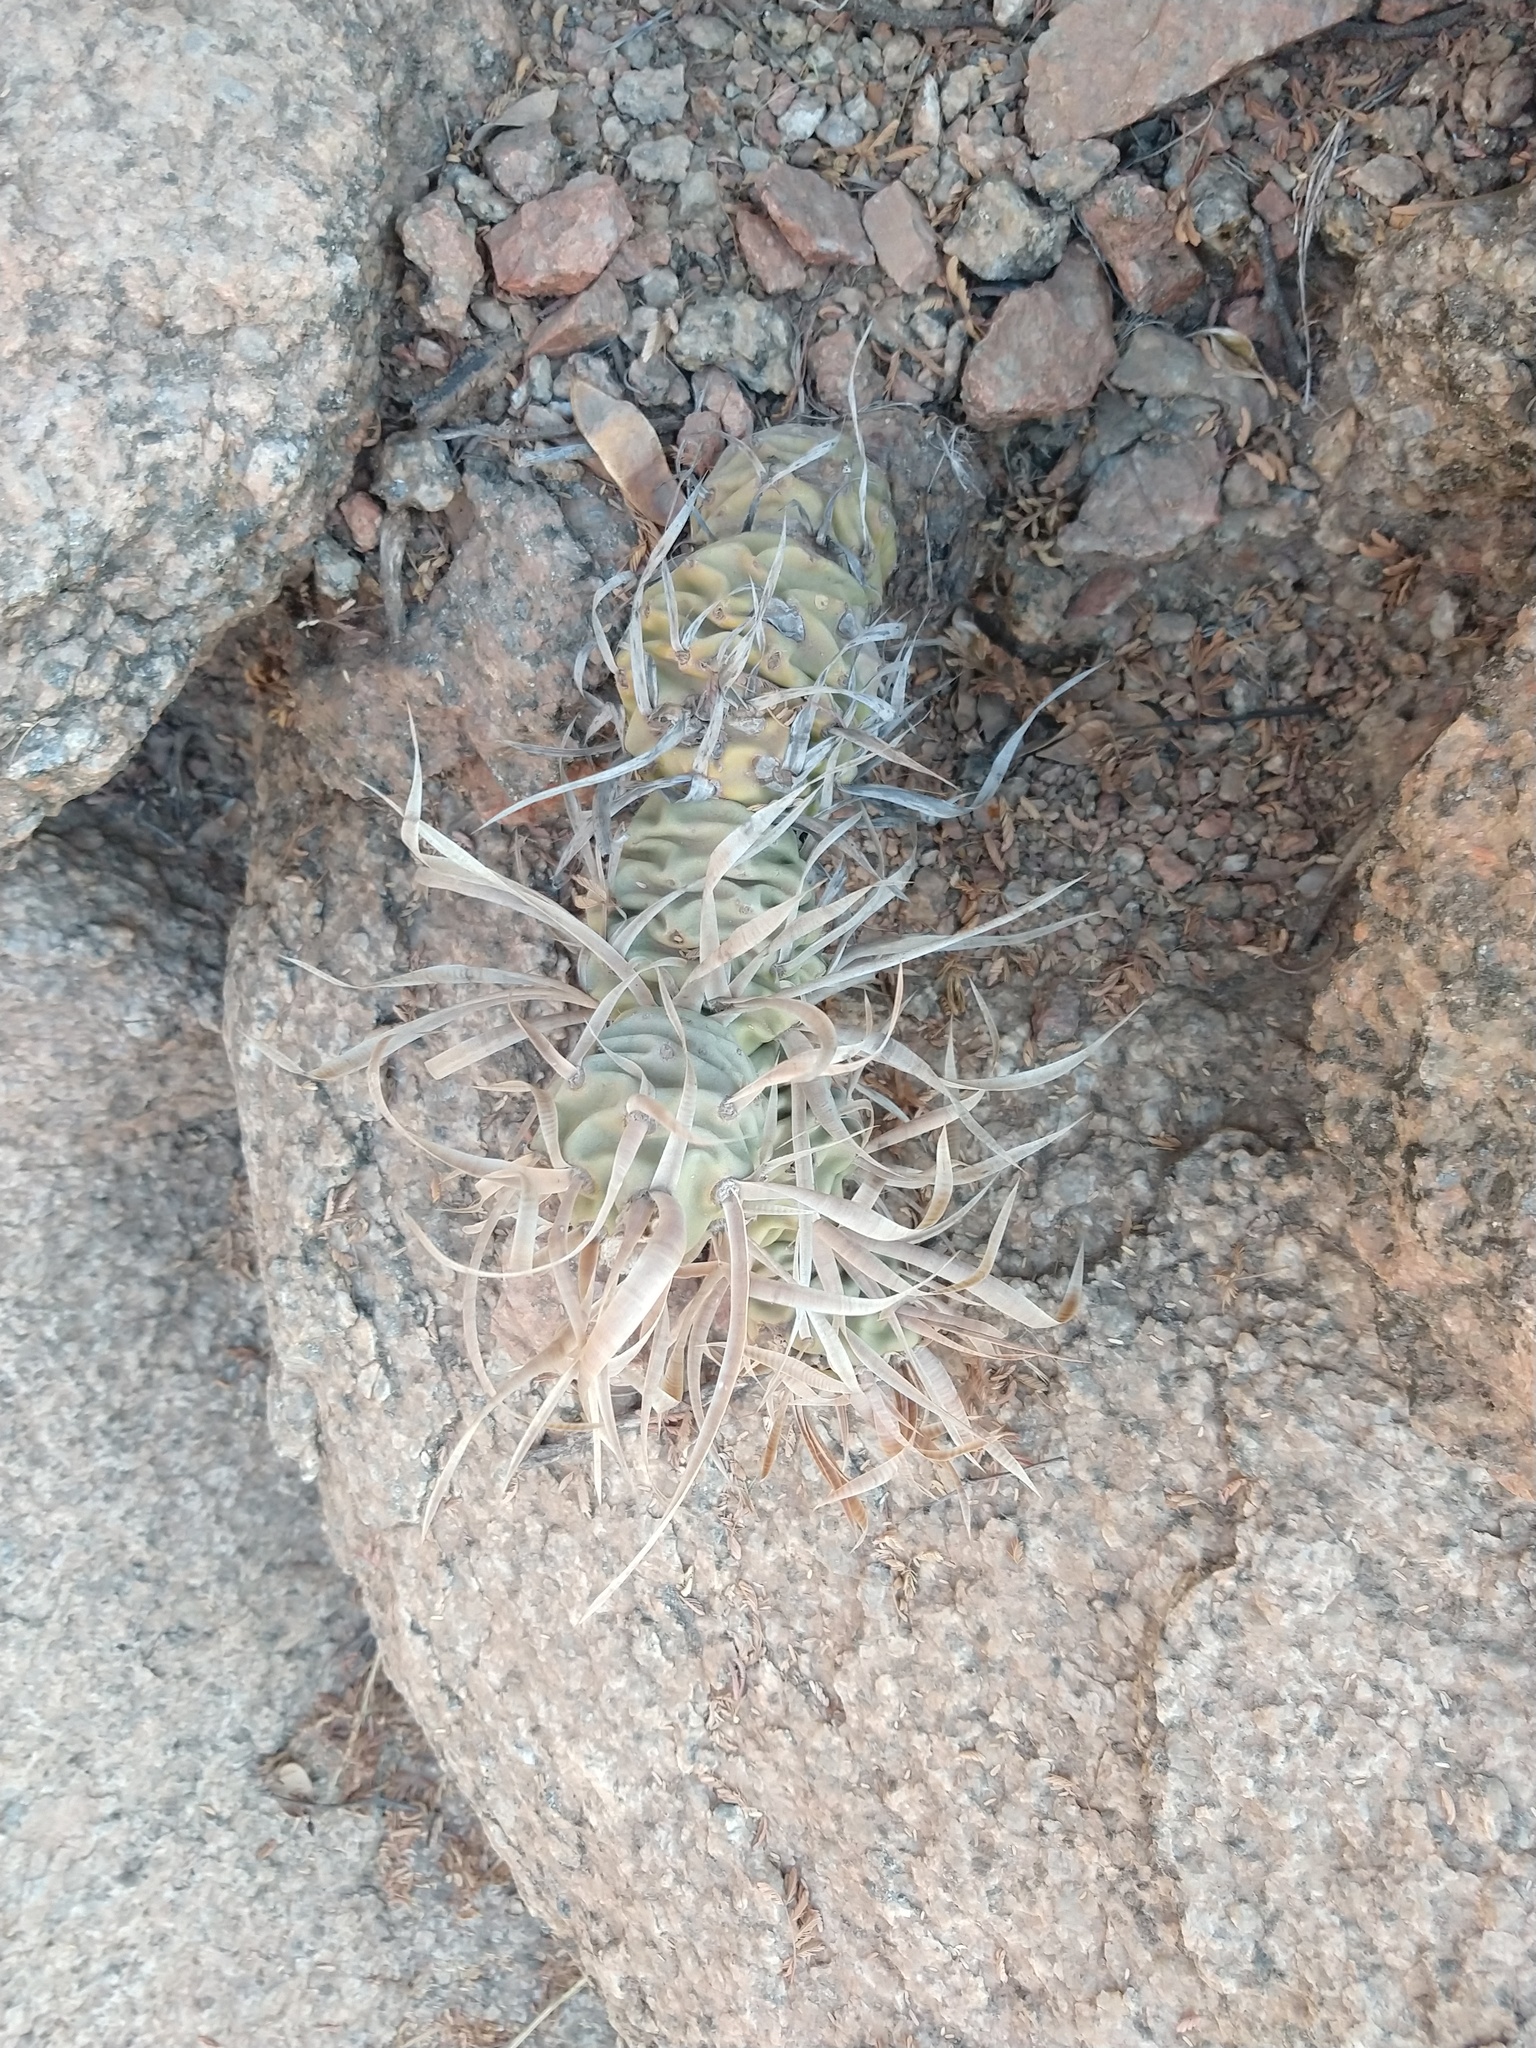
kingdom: Plantae
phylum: Tracheophyta
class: Magnoliopsida
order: Caryophyllales
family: Cactaceae
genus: Tephrocactus
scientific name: Tephrocactus articulatus
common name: Paper cactus
